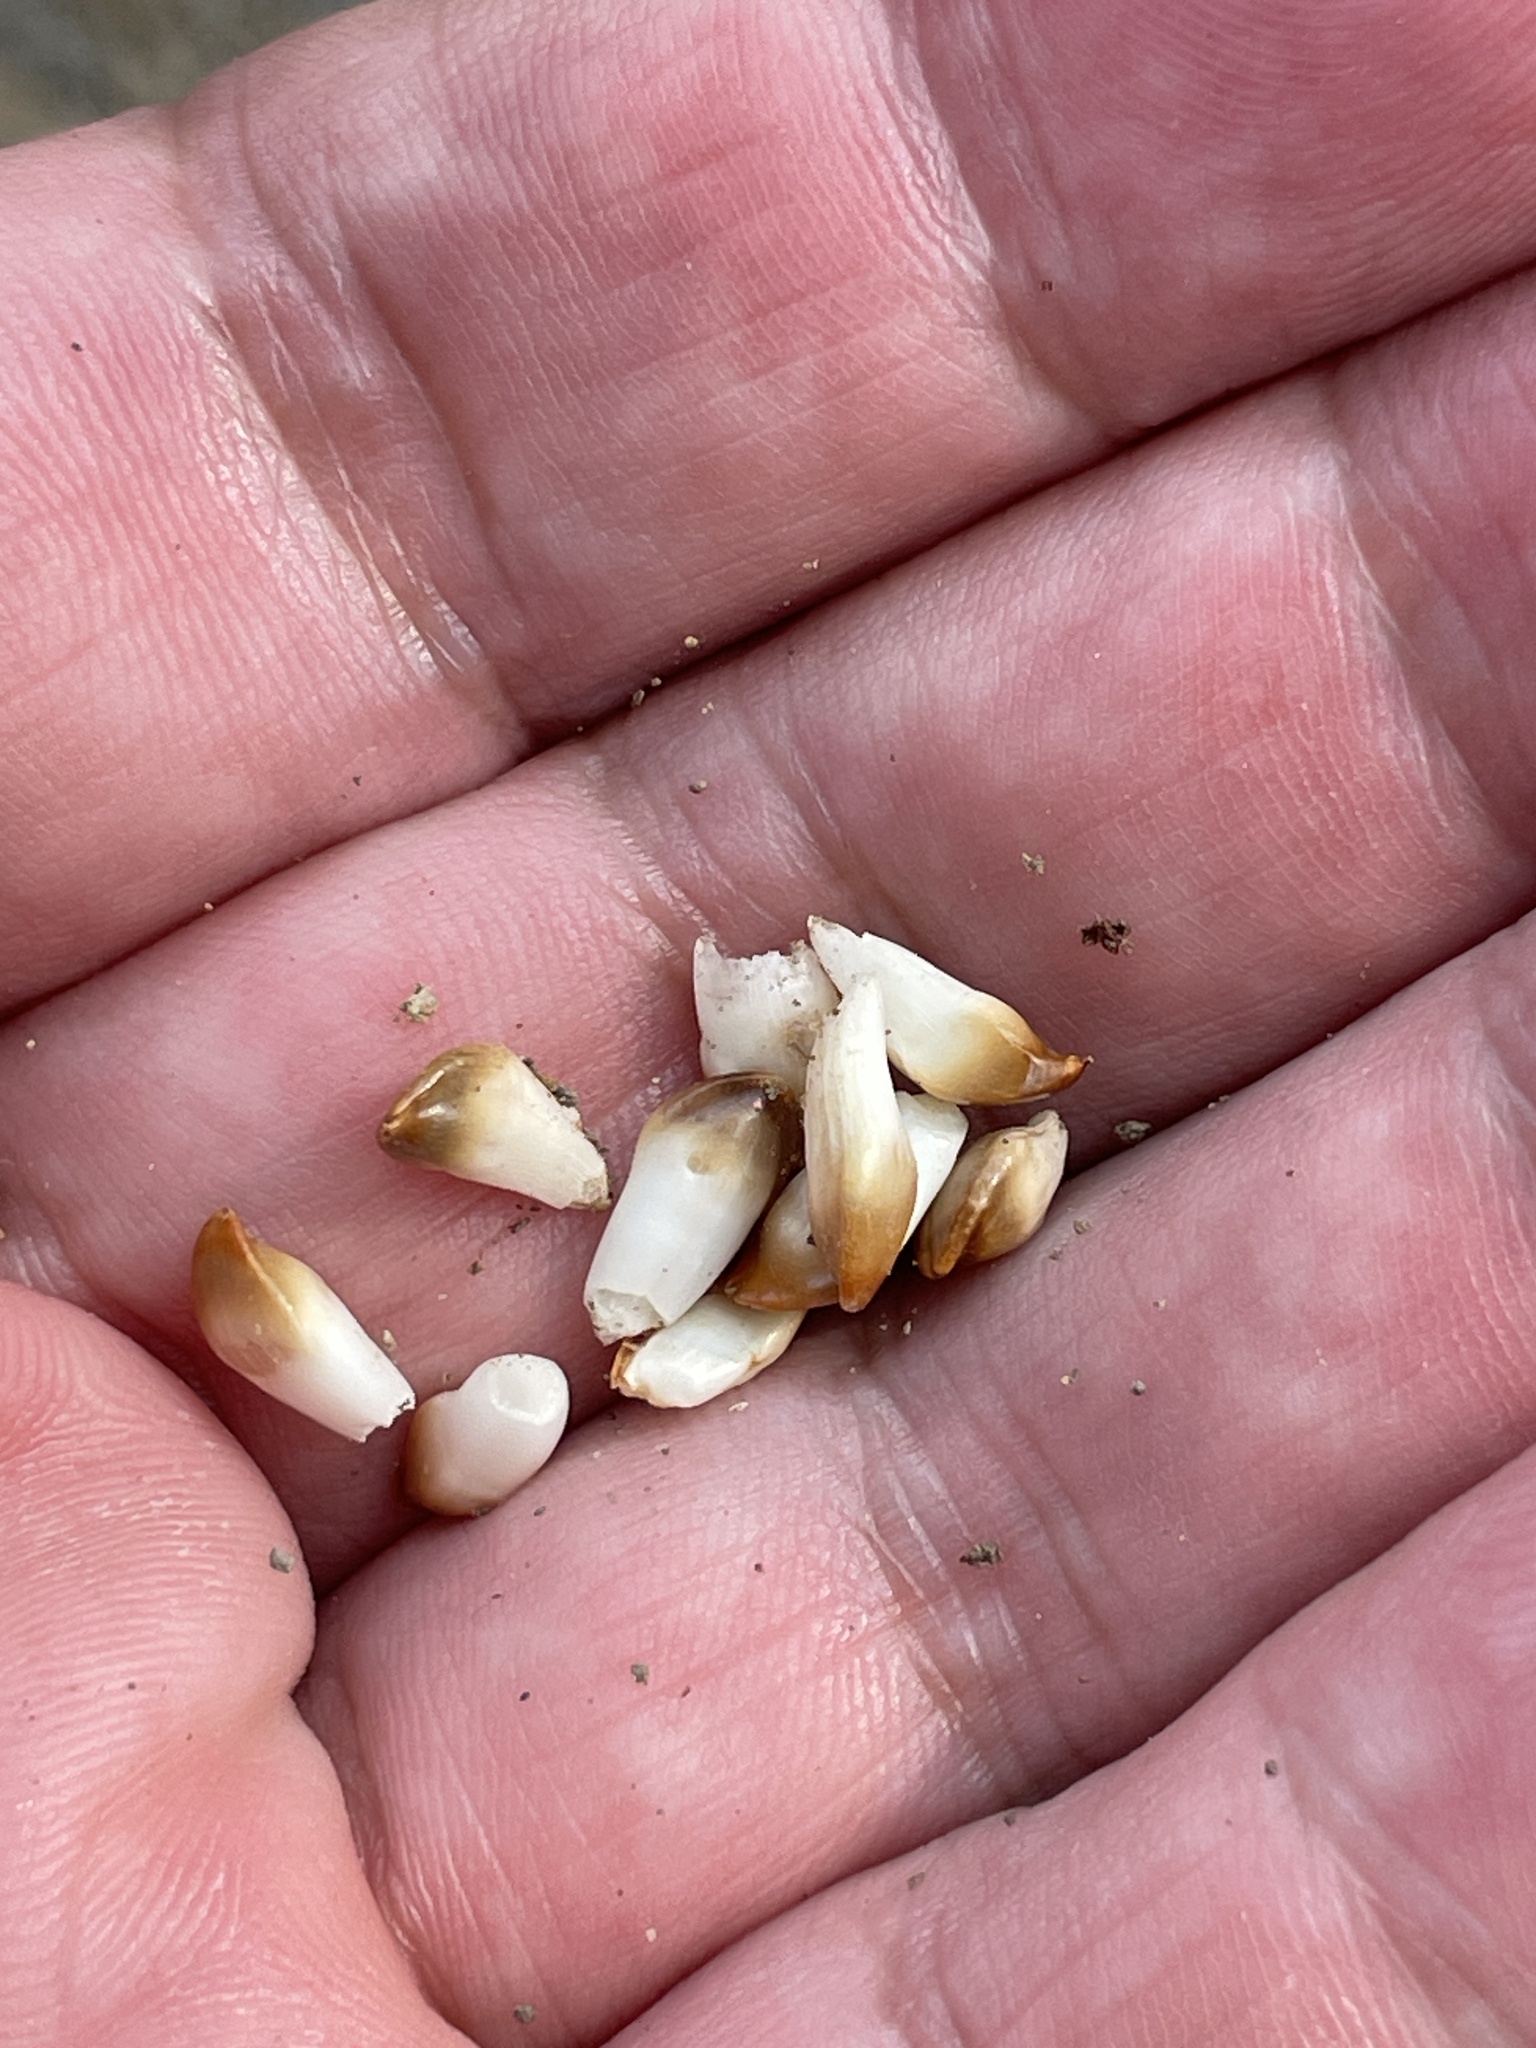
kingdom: Animalia
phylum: Arthropoda
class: Insecta
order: Hymenoptera
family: Cynipidae
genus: Callirhytis
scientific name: Callirhytis
